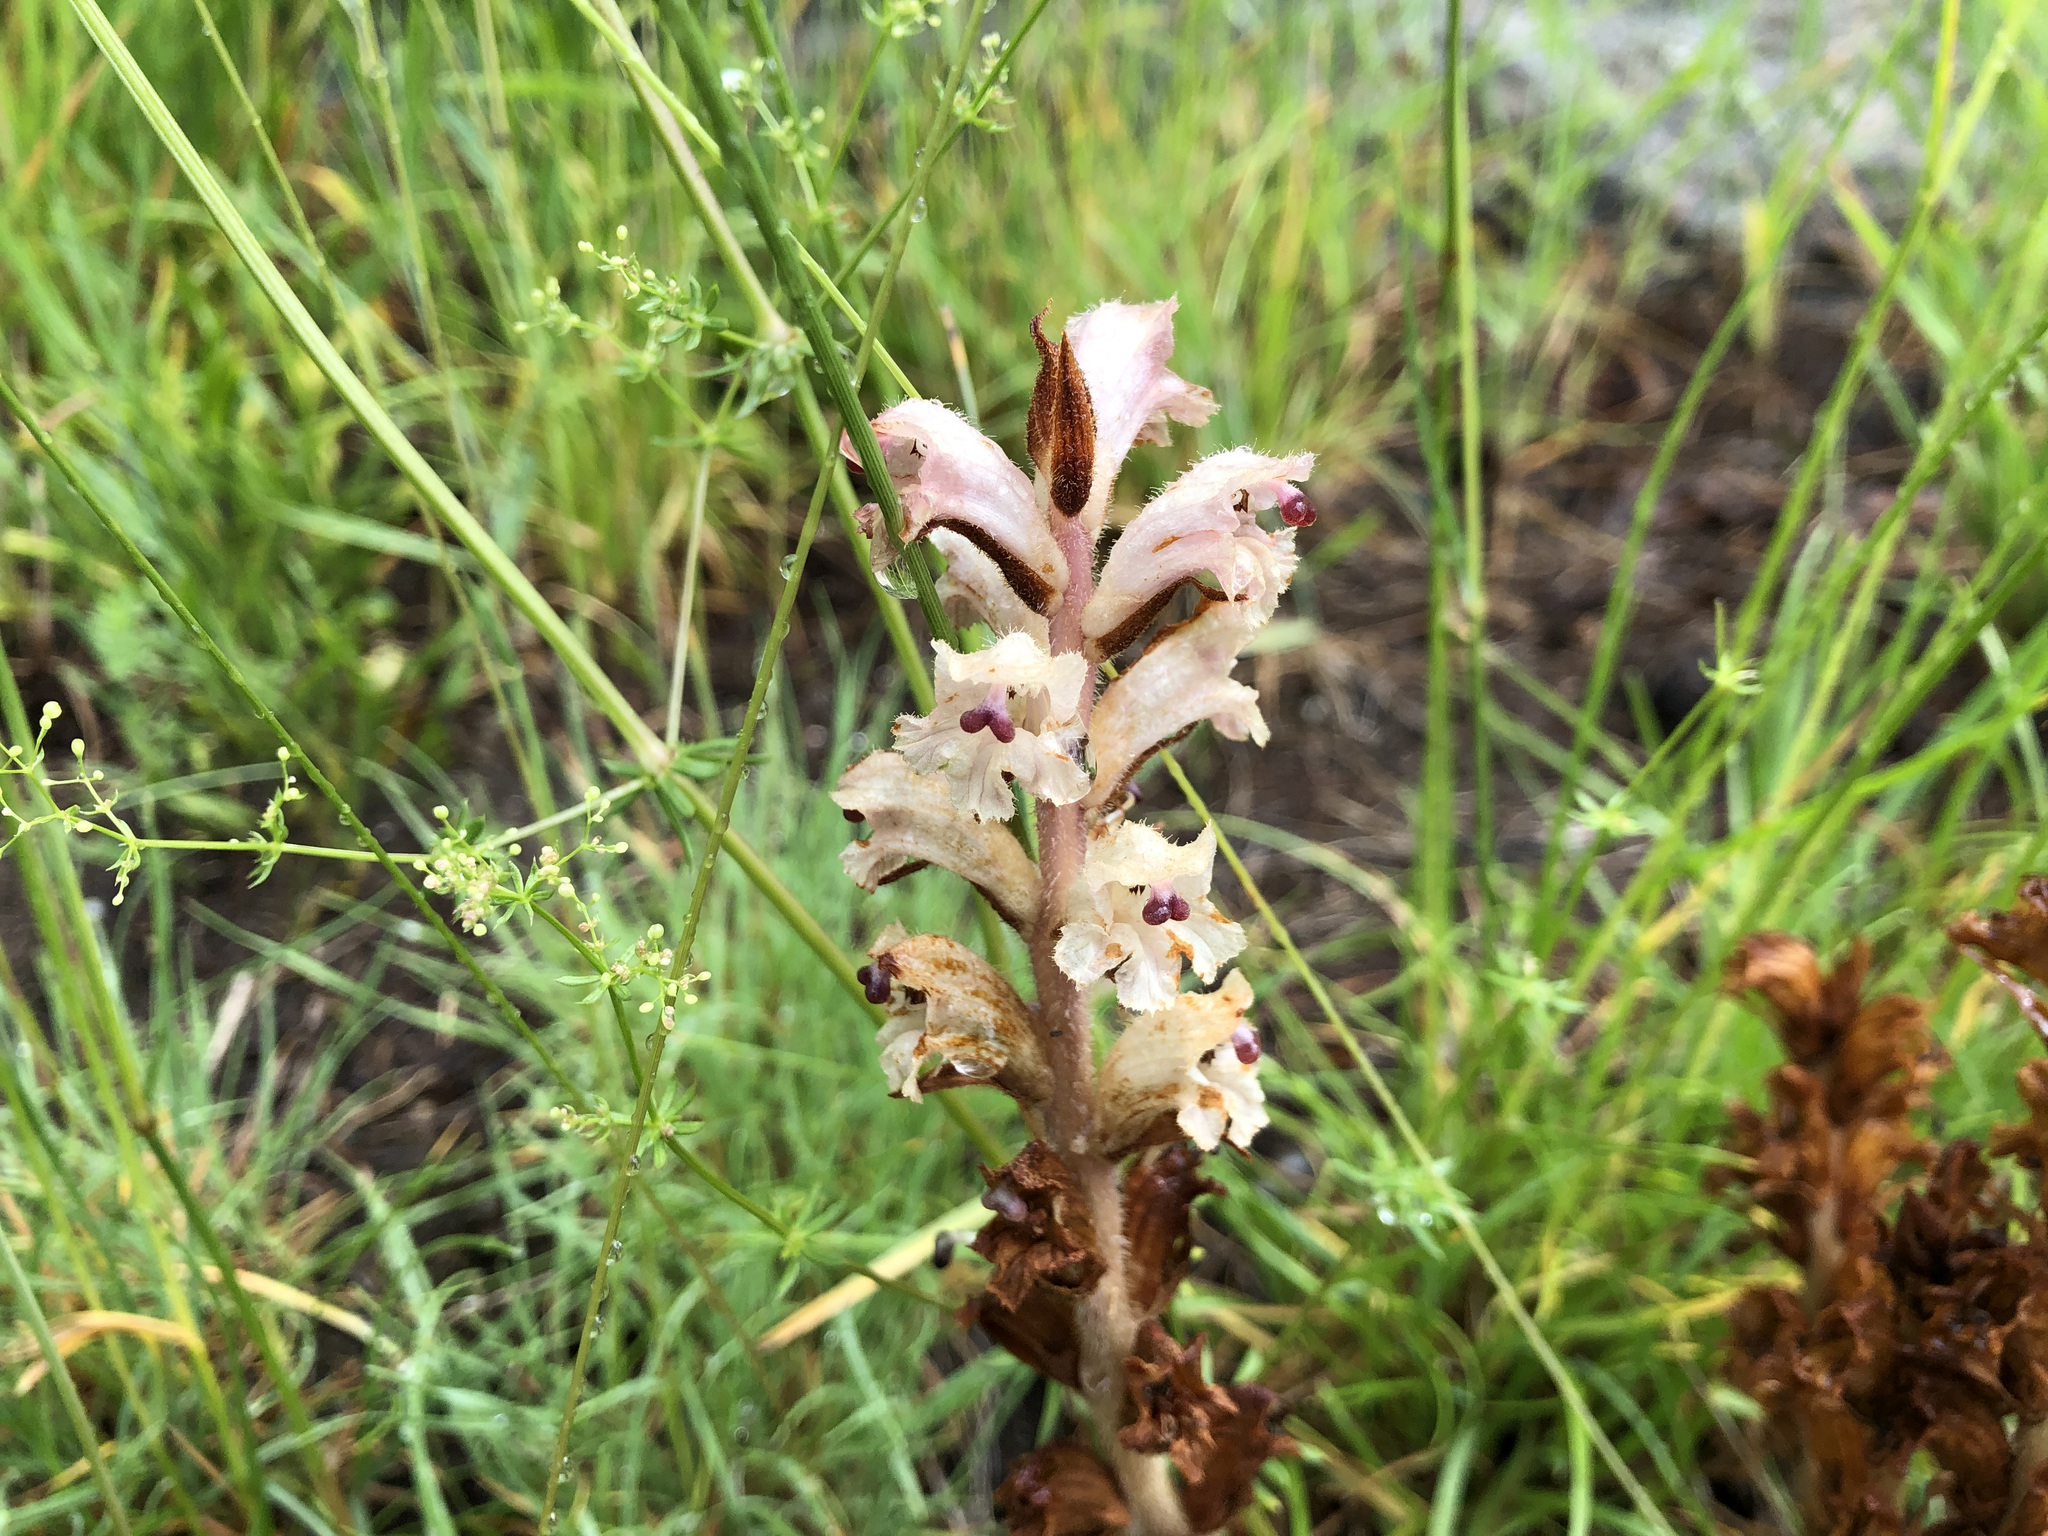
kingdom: Plantae
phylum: Tracheophyta
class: Magnoliopsida
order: Lamiales
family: Orobanchaceae
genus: Orobanche
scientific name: Orobanche caryophyllacea
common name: Bedstraw broomrape
